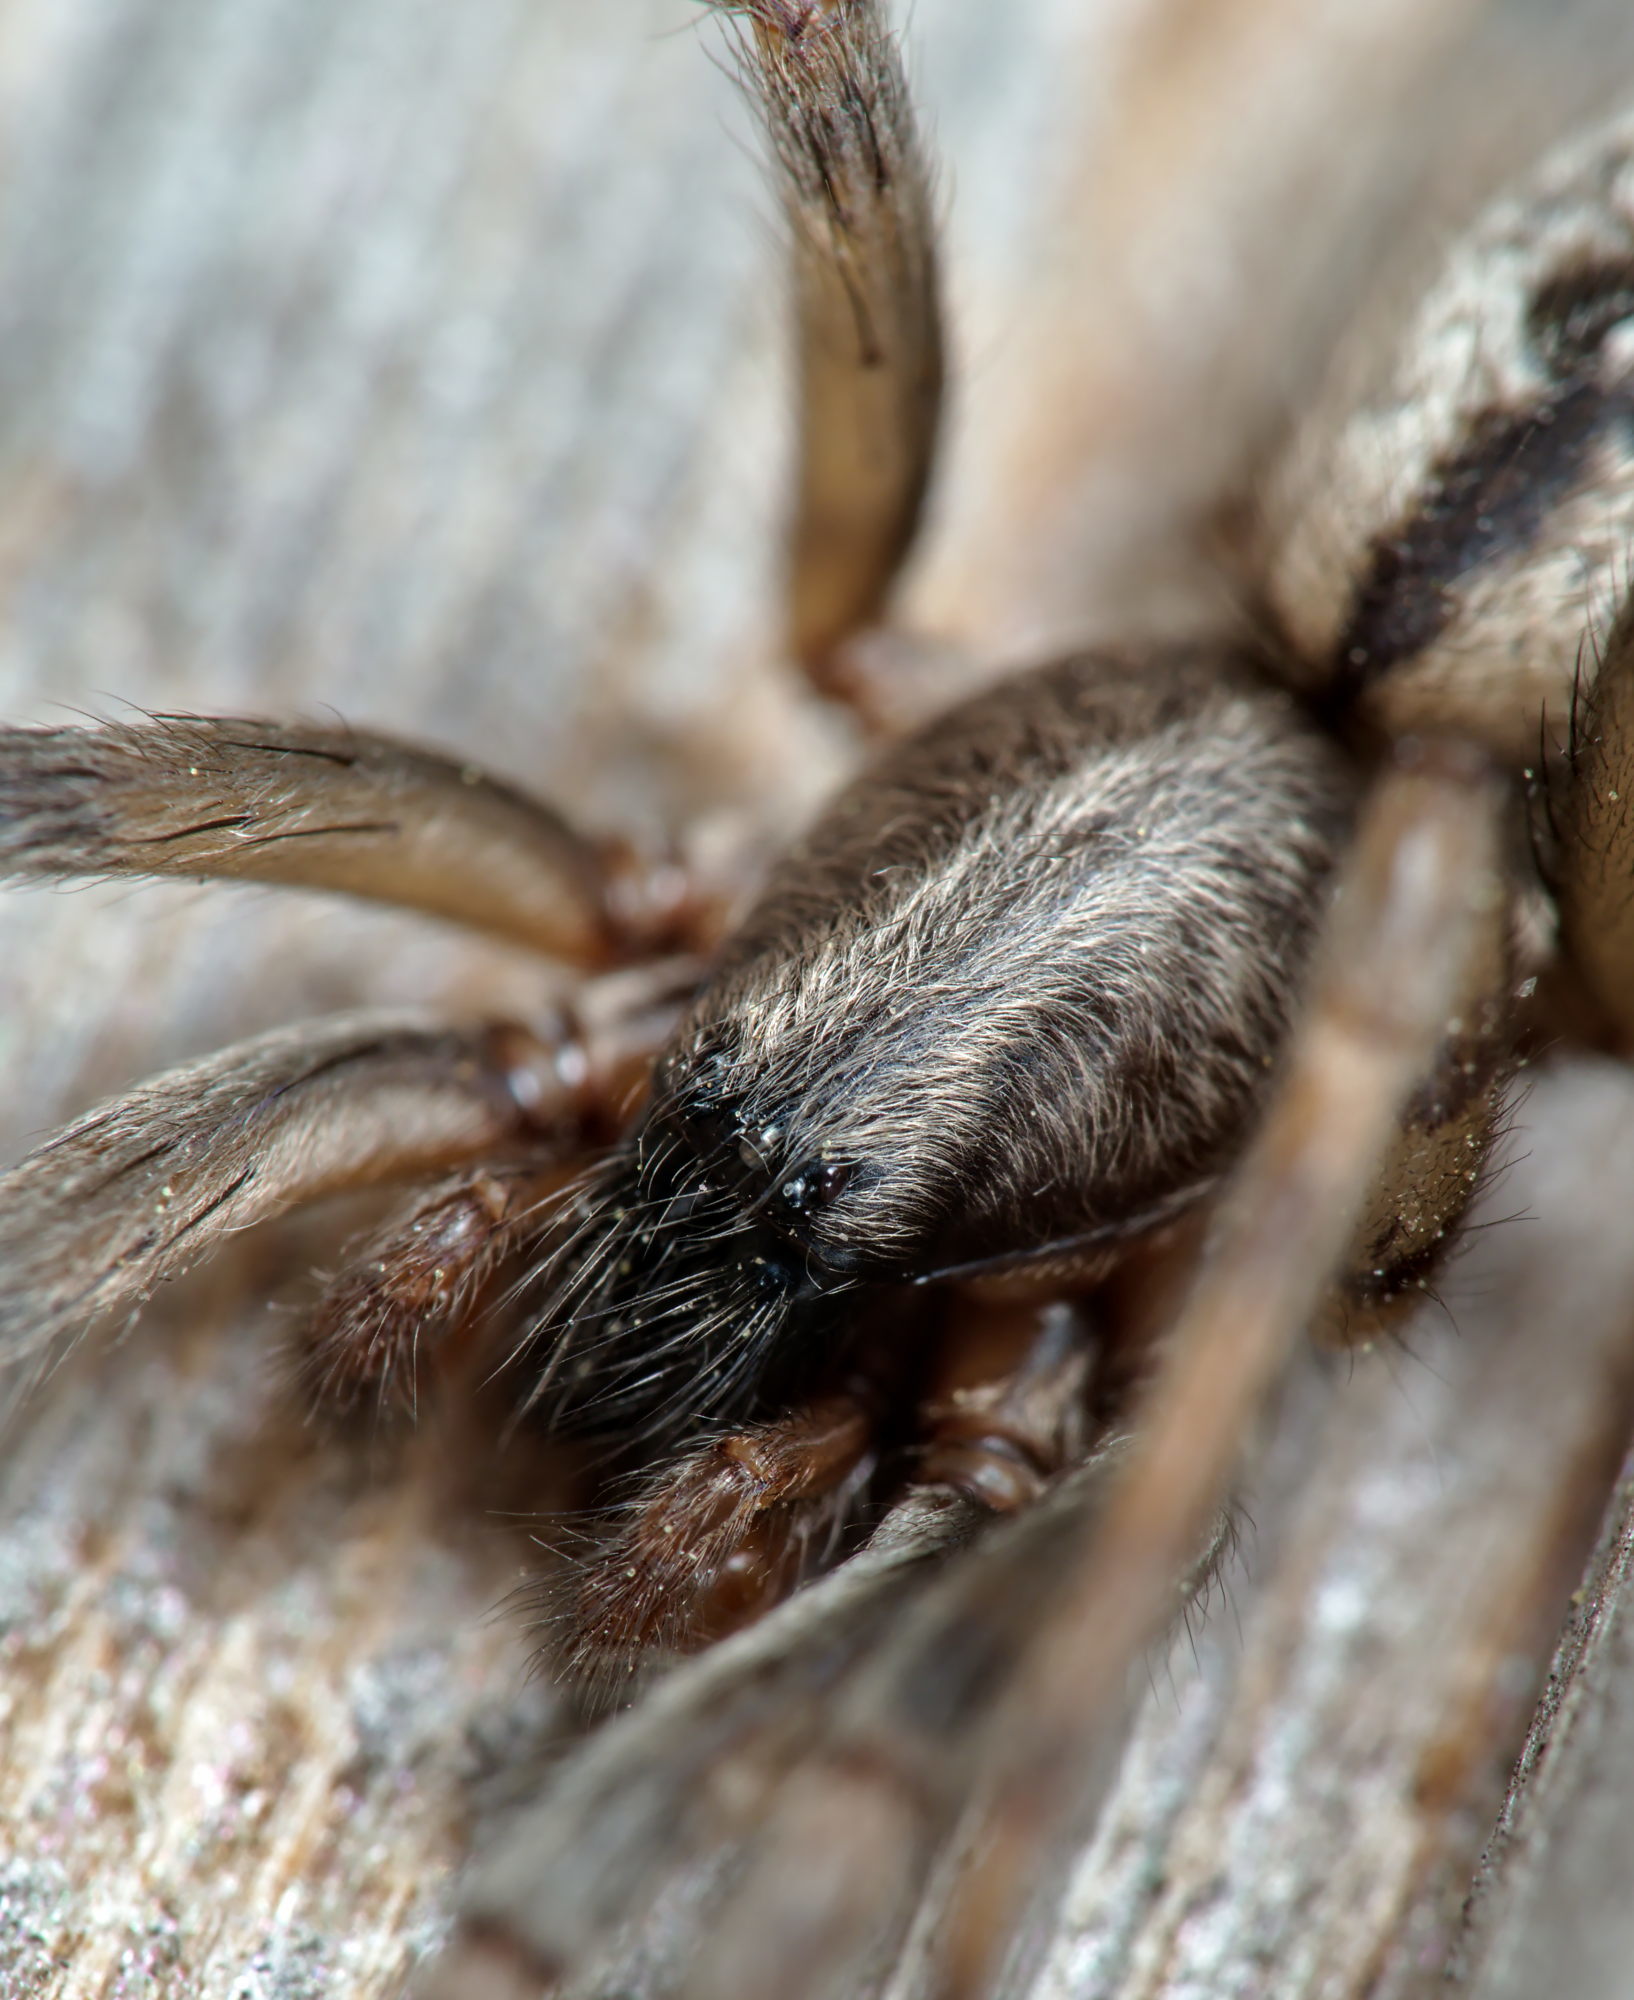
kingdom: Animalia
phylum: Arthropoda
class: Arachnida
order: Araneae
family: Segestriidae
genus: Segestria
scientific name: Segestria bavarica
